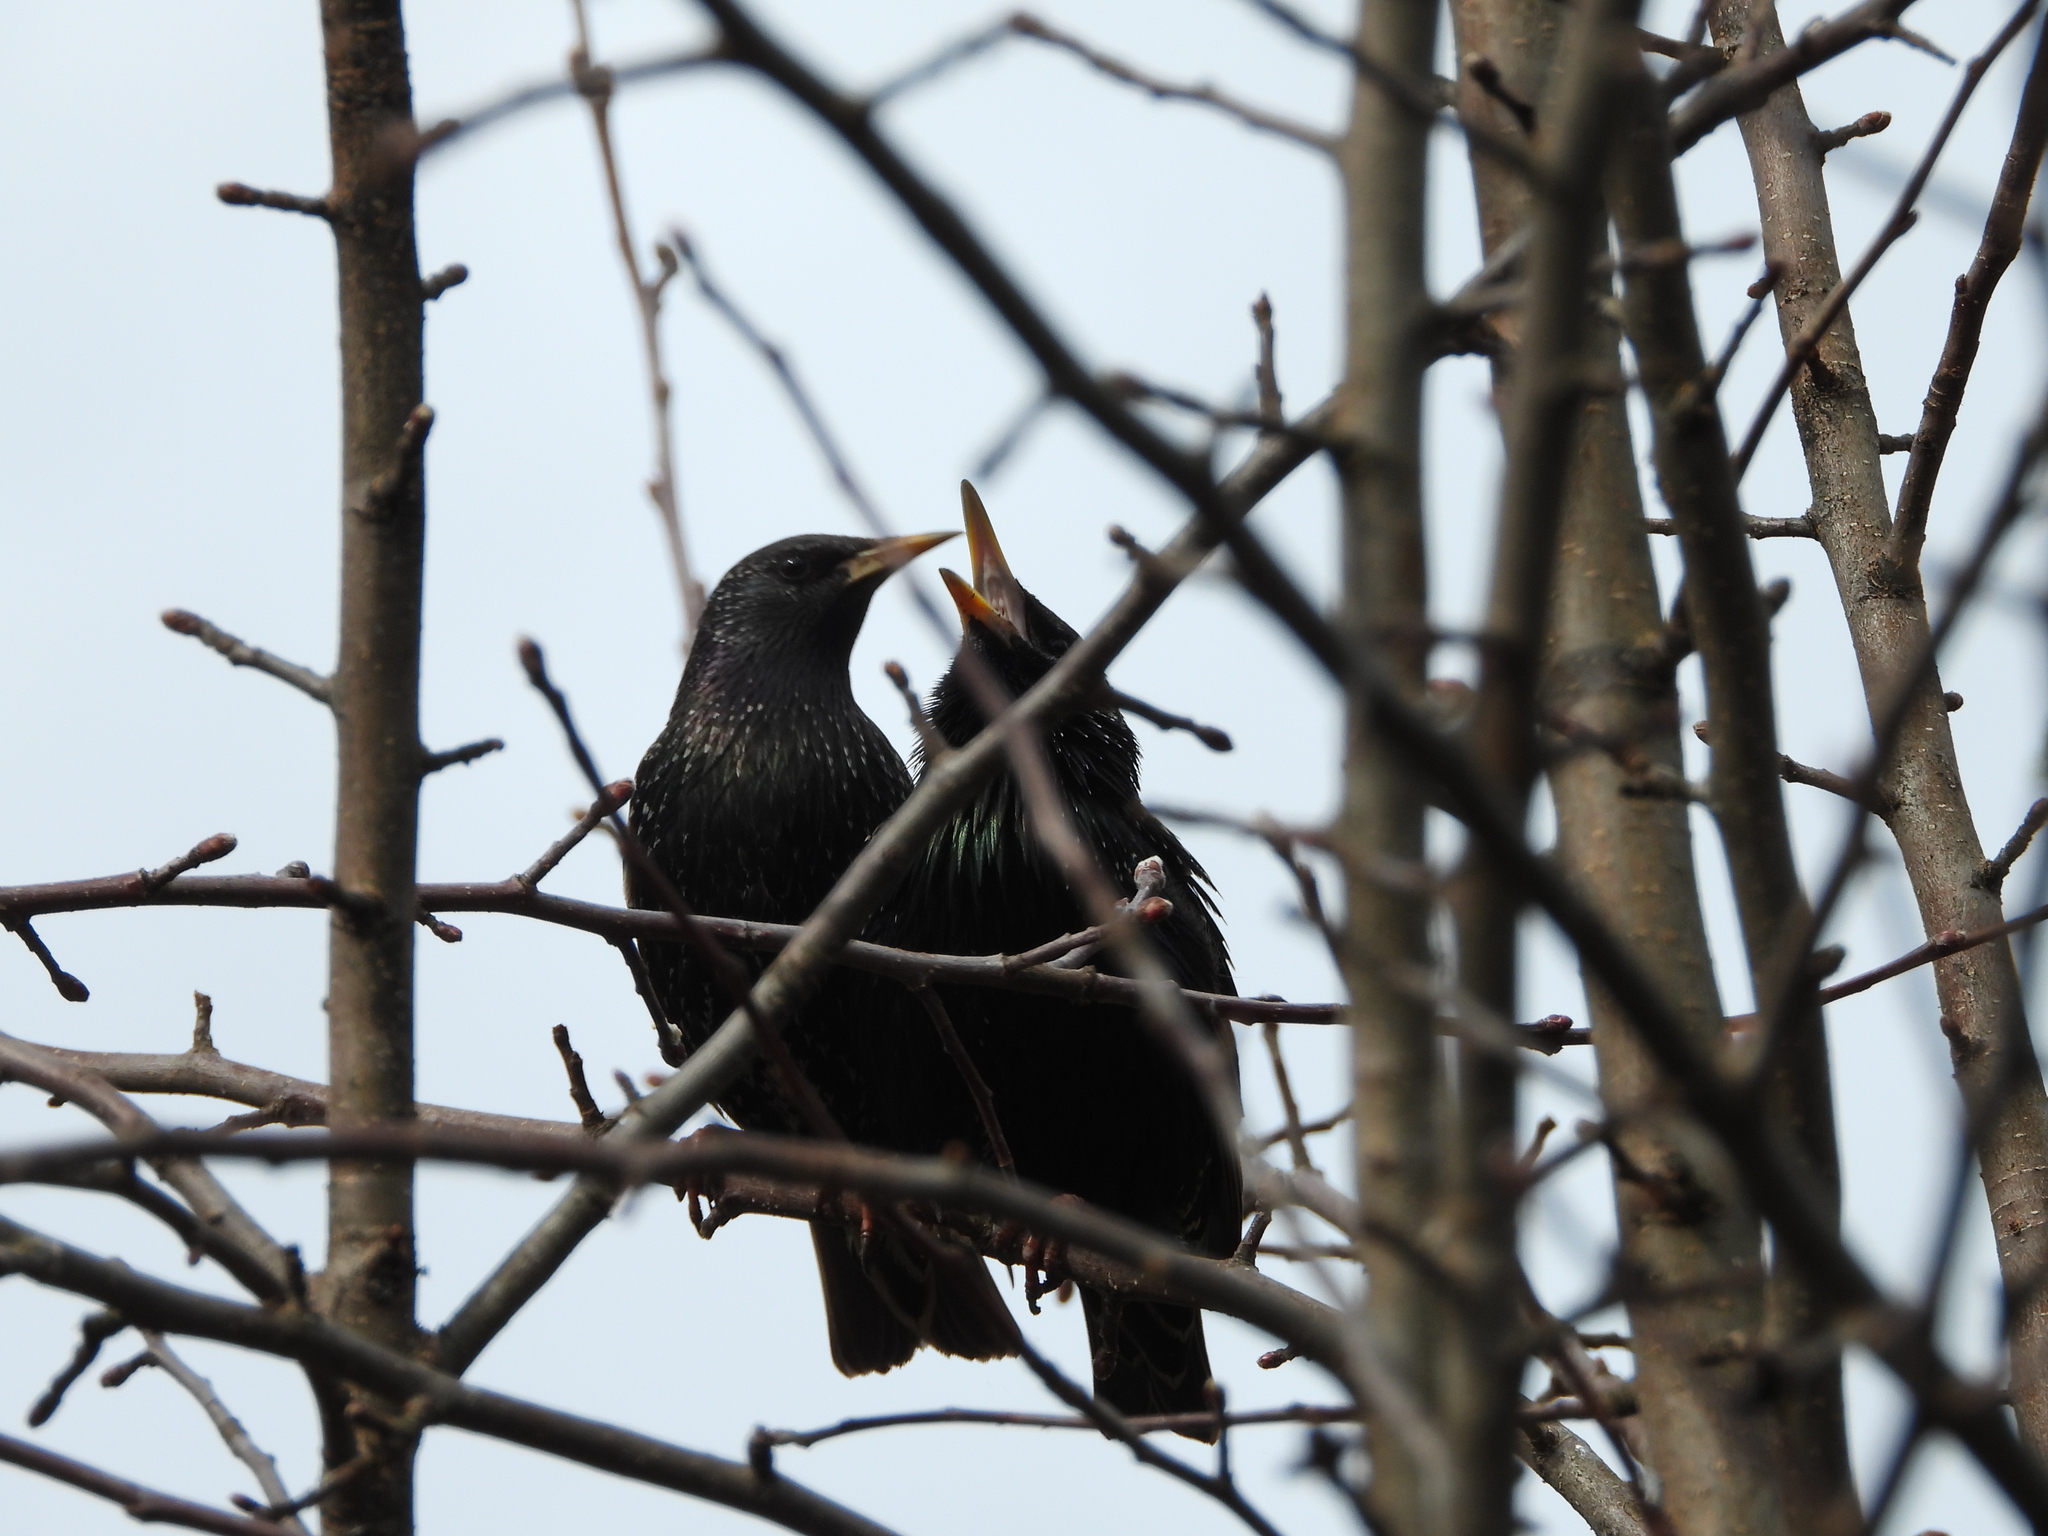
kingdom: Animalia
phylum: Chordata
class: Aves
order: Passeriformes
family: Sturnidae
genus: Sturnus
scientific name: Sturnus vulgaris
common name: Common starling
